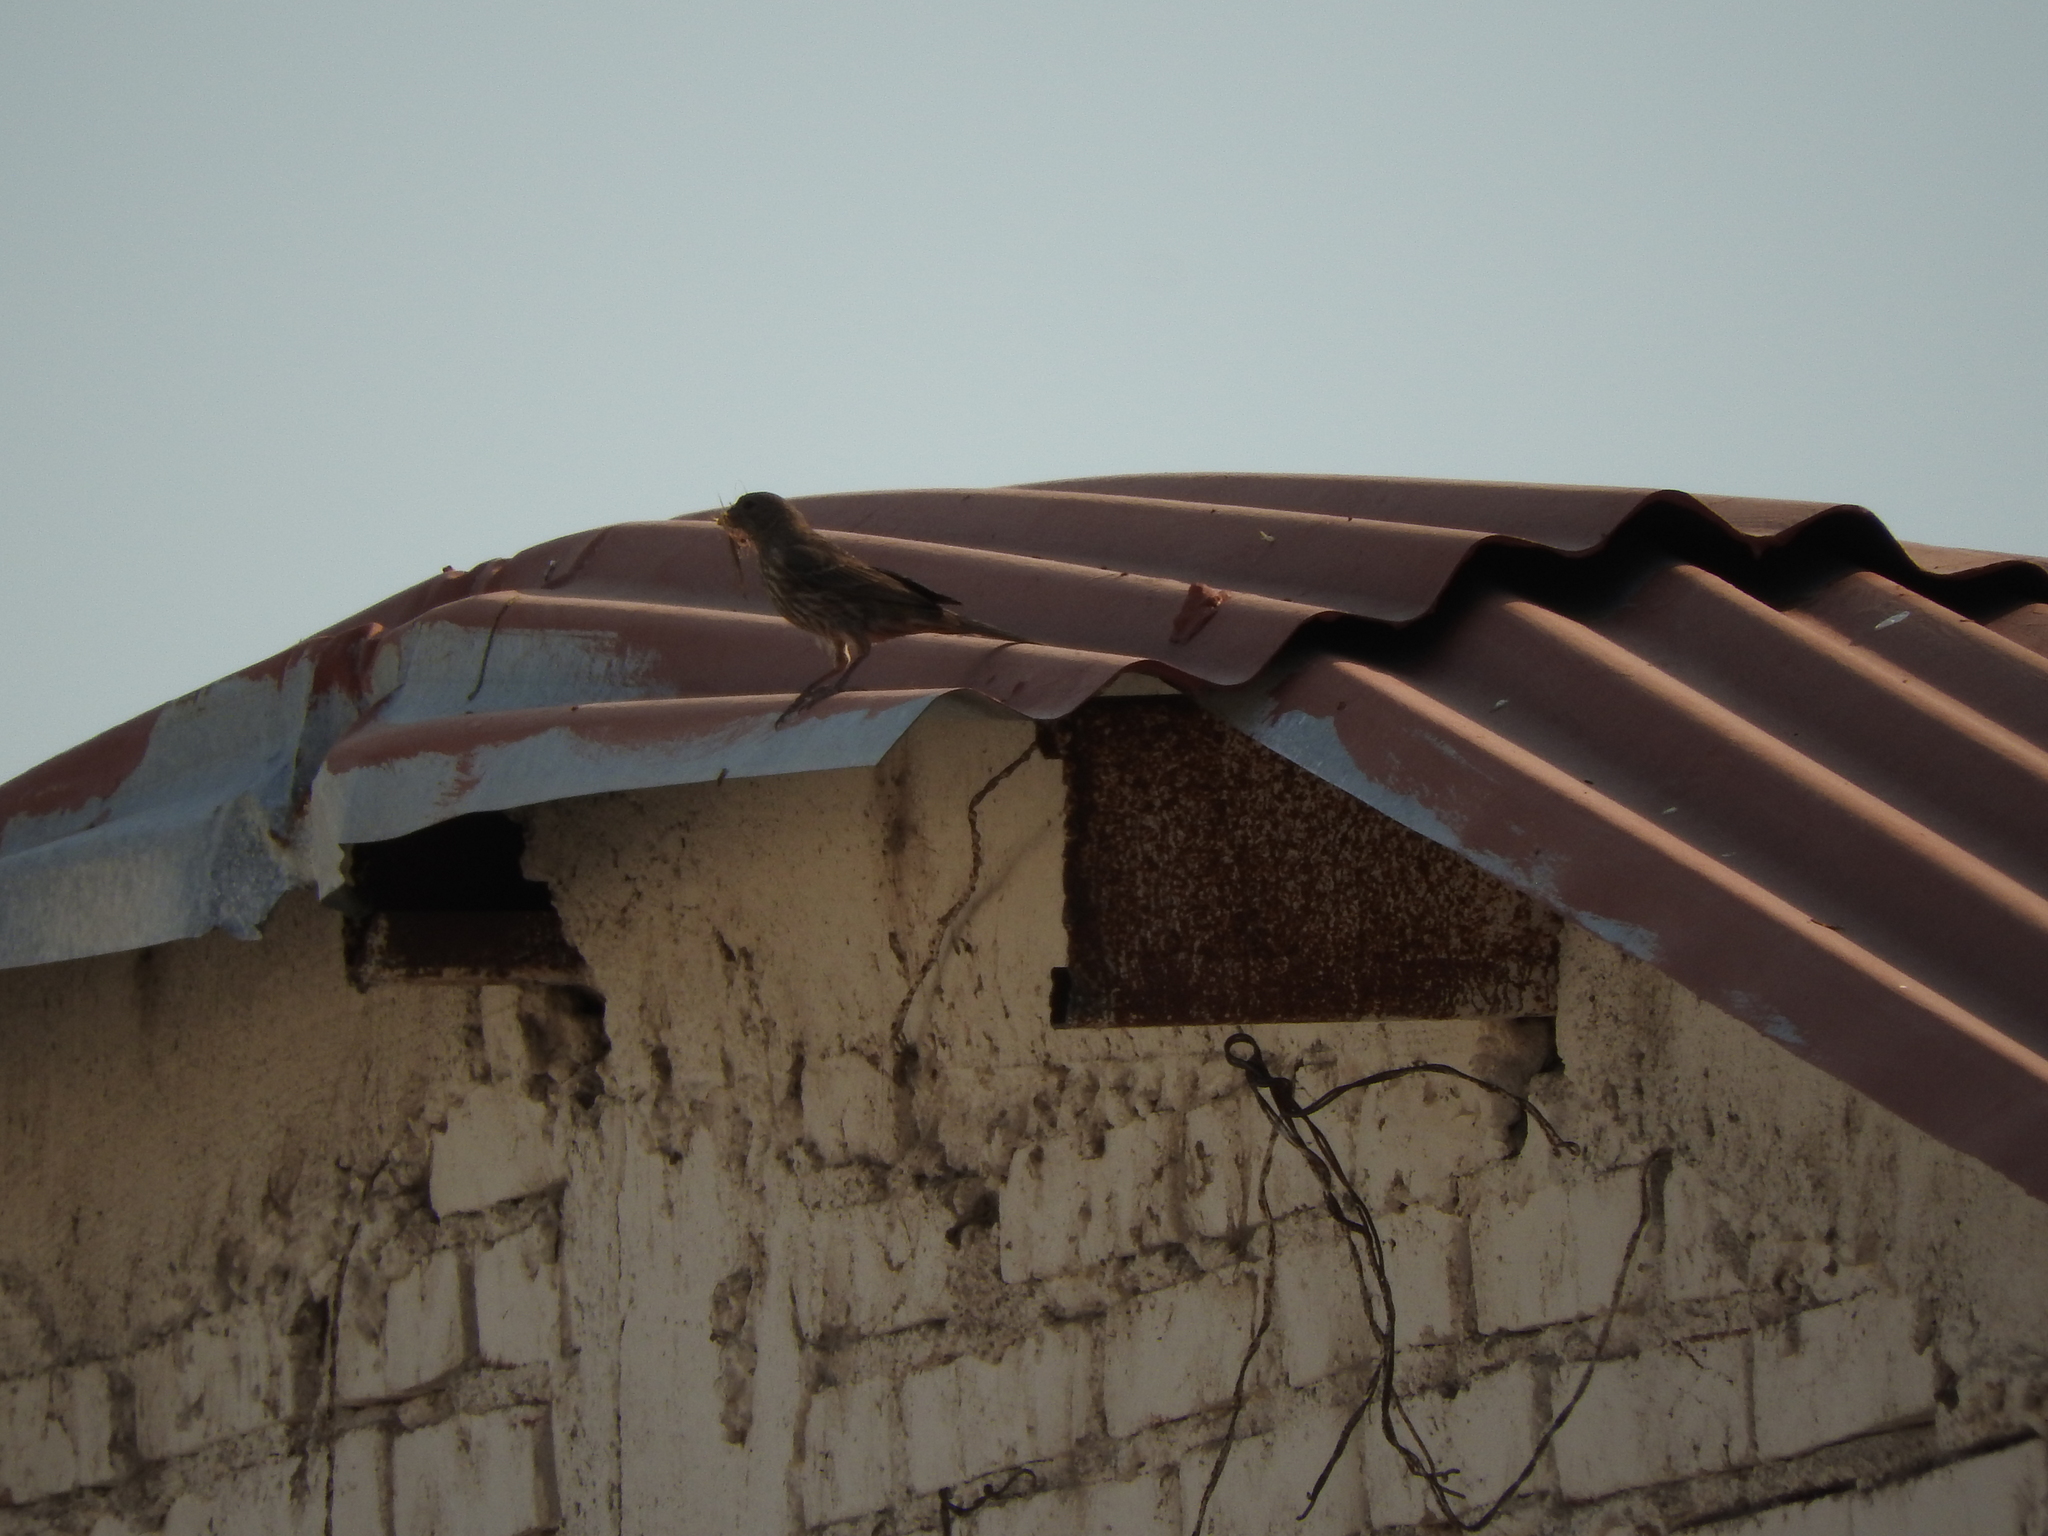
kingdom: Animalia
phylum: Chordata
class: Aves
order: Passeriformes
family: Fringillidae
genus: Haemorhous
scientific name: Haemorhous mexicanus
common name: House finch
